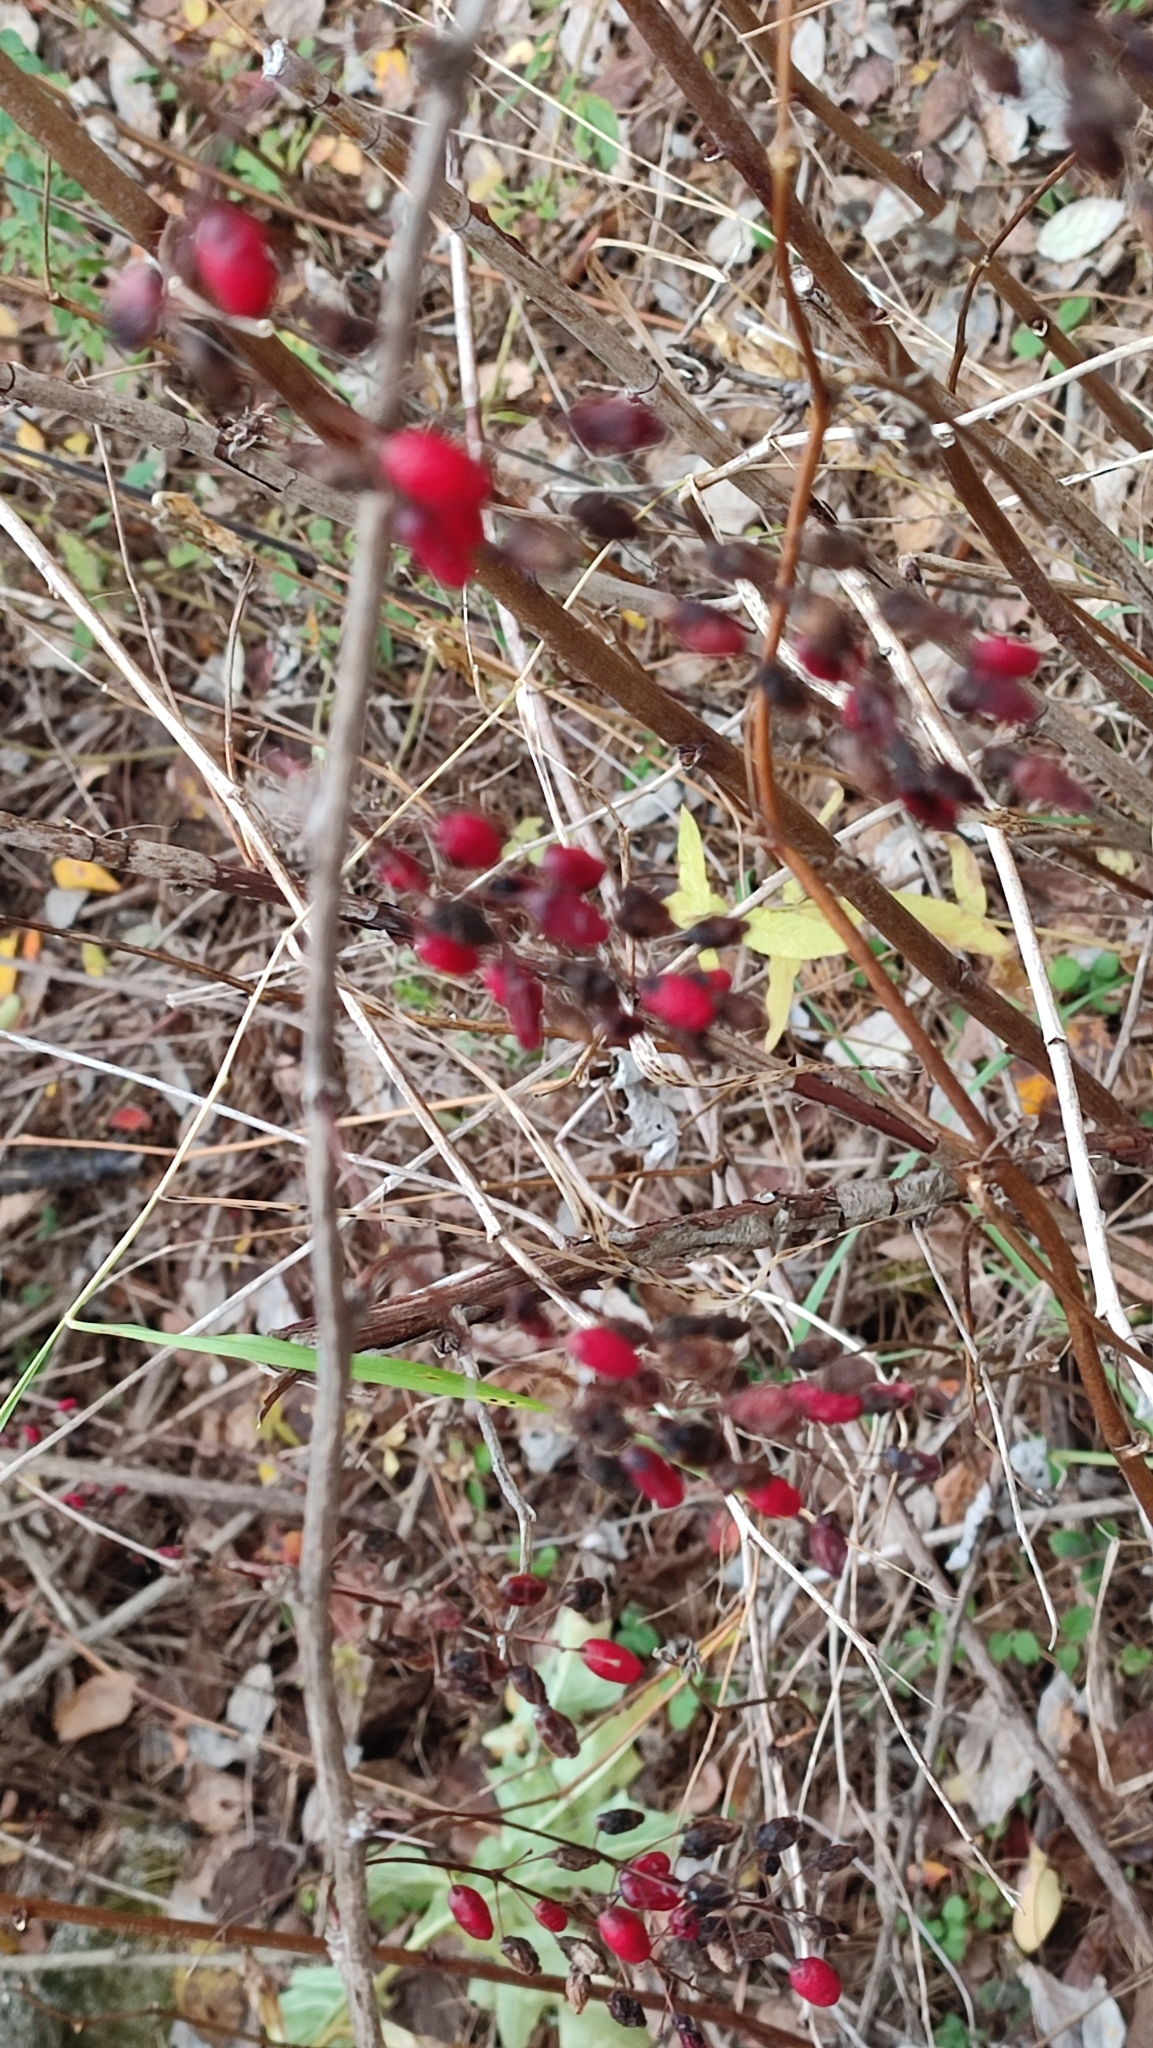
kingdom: Plantae
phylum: Tracheophyta
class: Magnoliopsida
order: Ranunculales
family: Berberidaceae
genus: Berberis
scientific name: Berberis vulgaris
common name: Barberry
